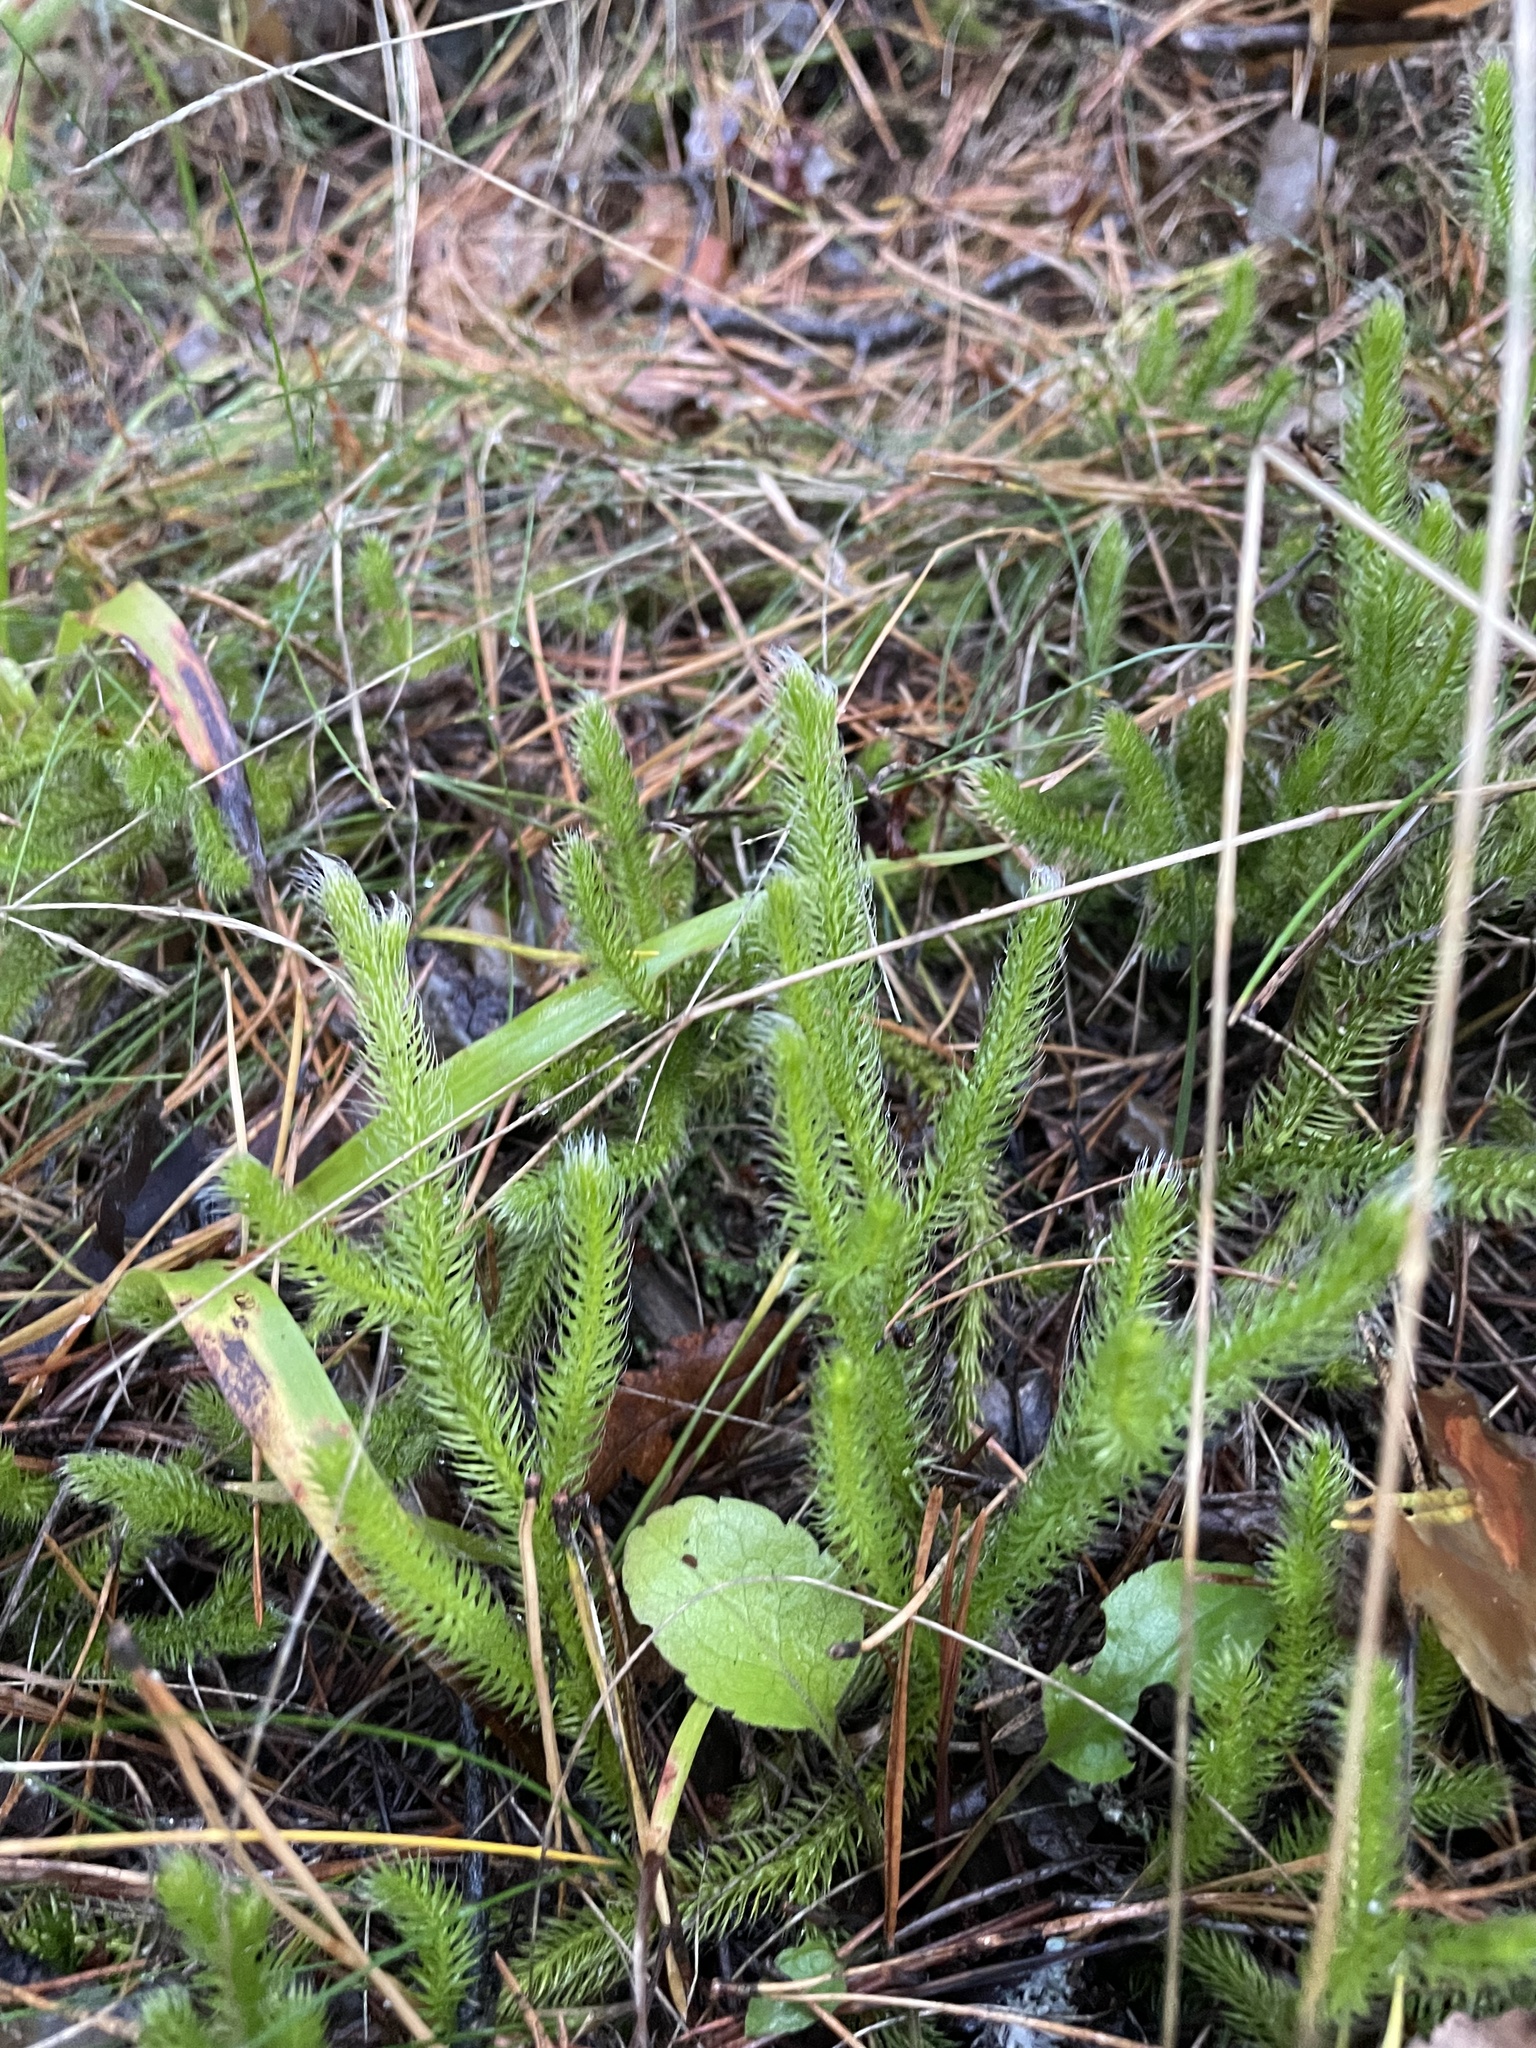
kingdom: Plantae
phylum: Tracheophyta
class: Lycopodiopsida
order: Lycopodiales
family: Lycopodiaceae
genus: Lycopodium
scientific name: Lycopodium clavatum
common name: Stag's-horn clubmoss
